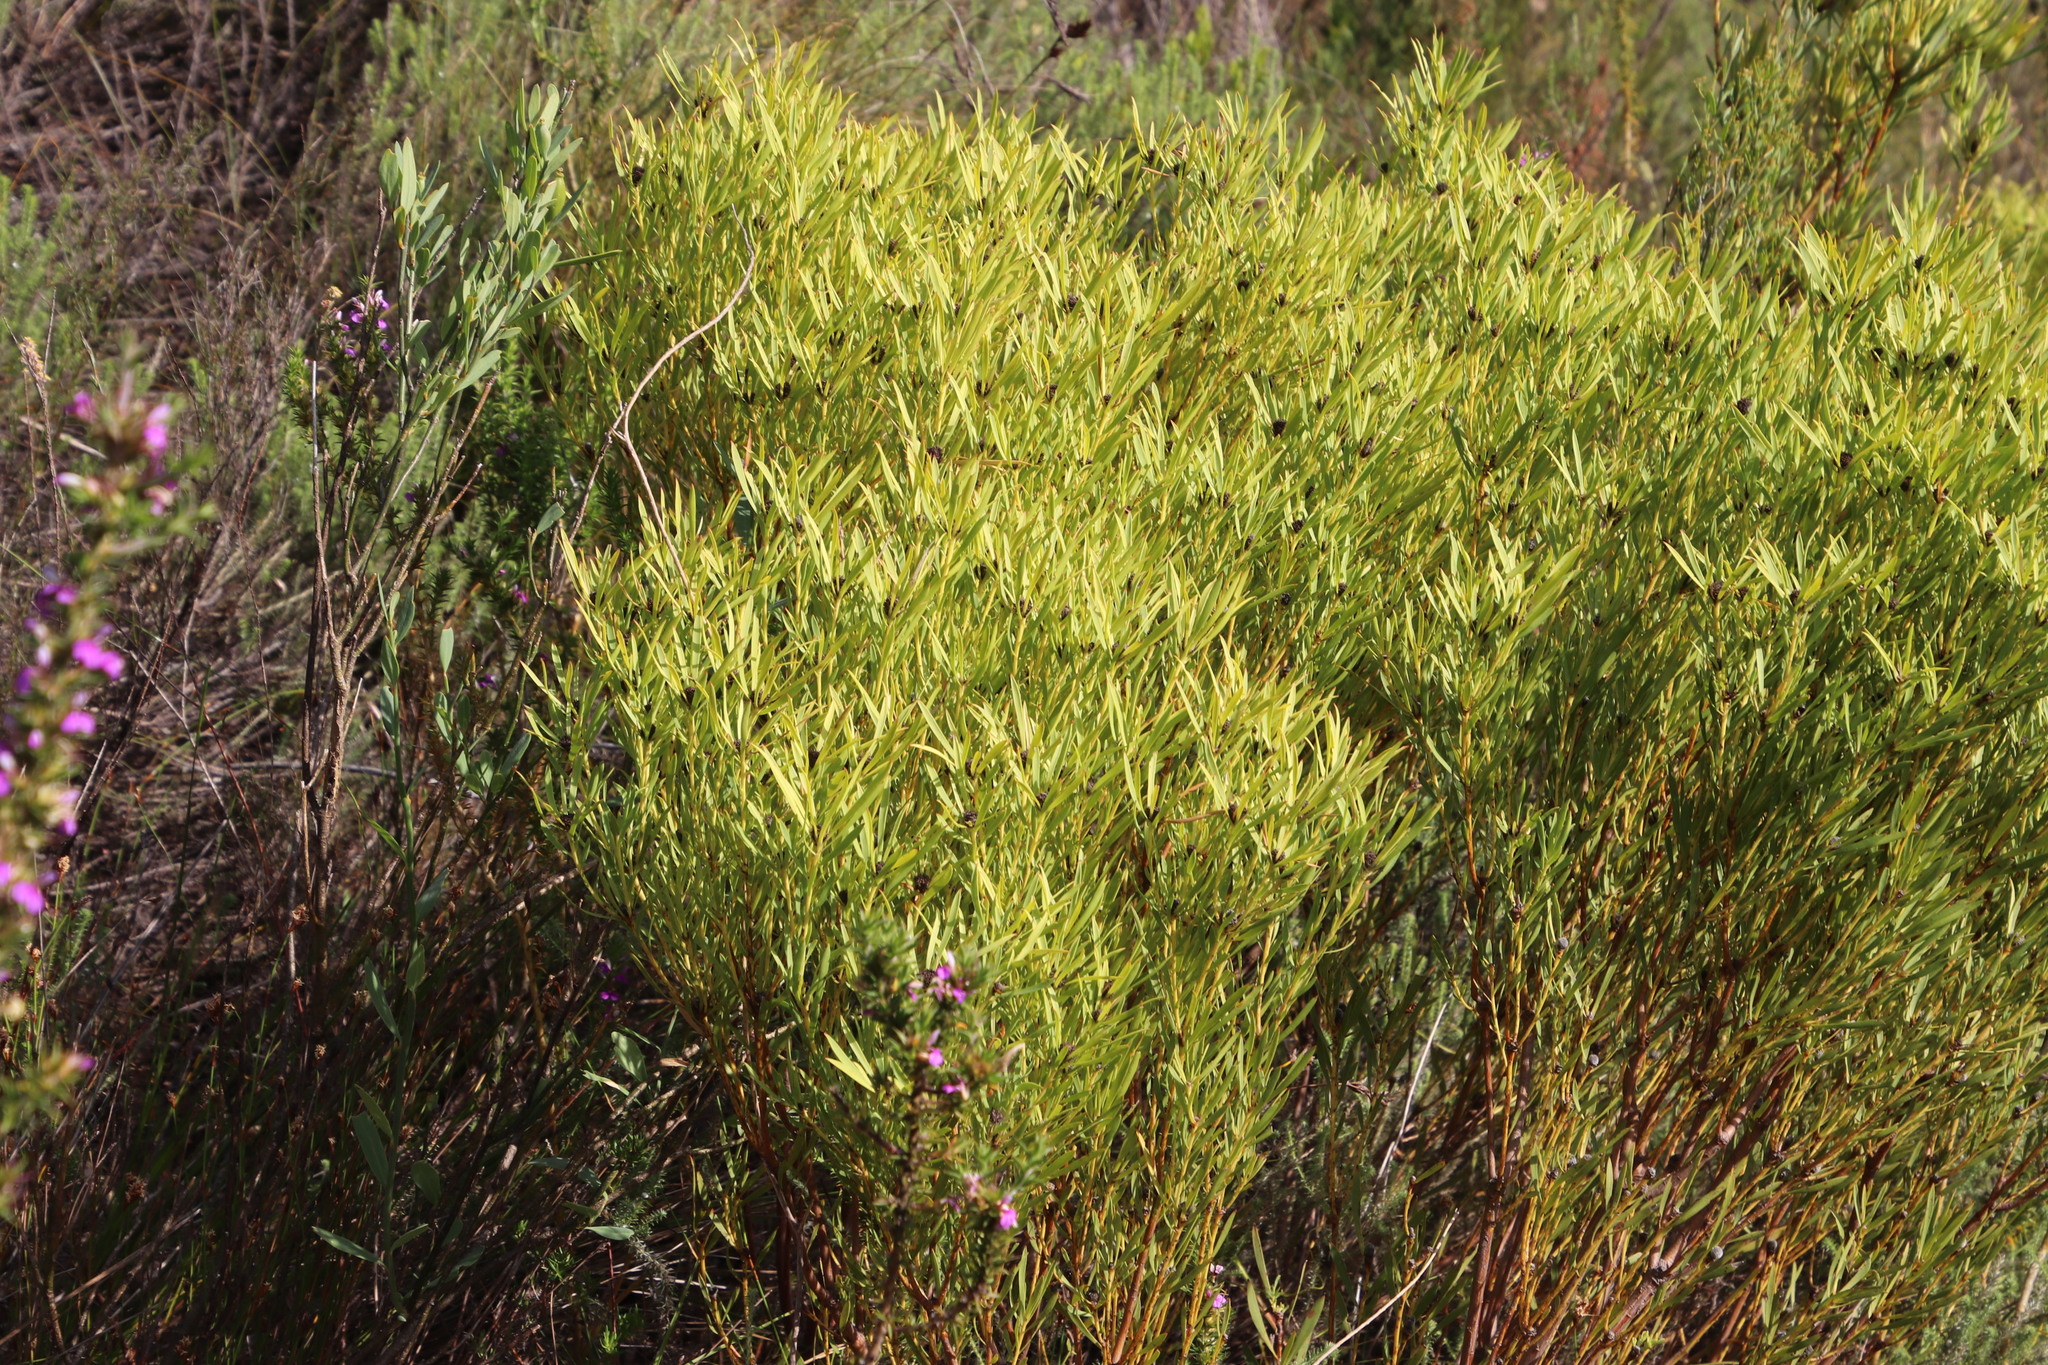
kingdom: Plantae
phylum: Tracheophyta
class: Magnoliopsida
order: Proteales
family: Proteaceae
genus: Leucadendron
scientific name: Leucadendron salignum
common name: Common sunshine conebush
